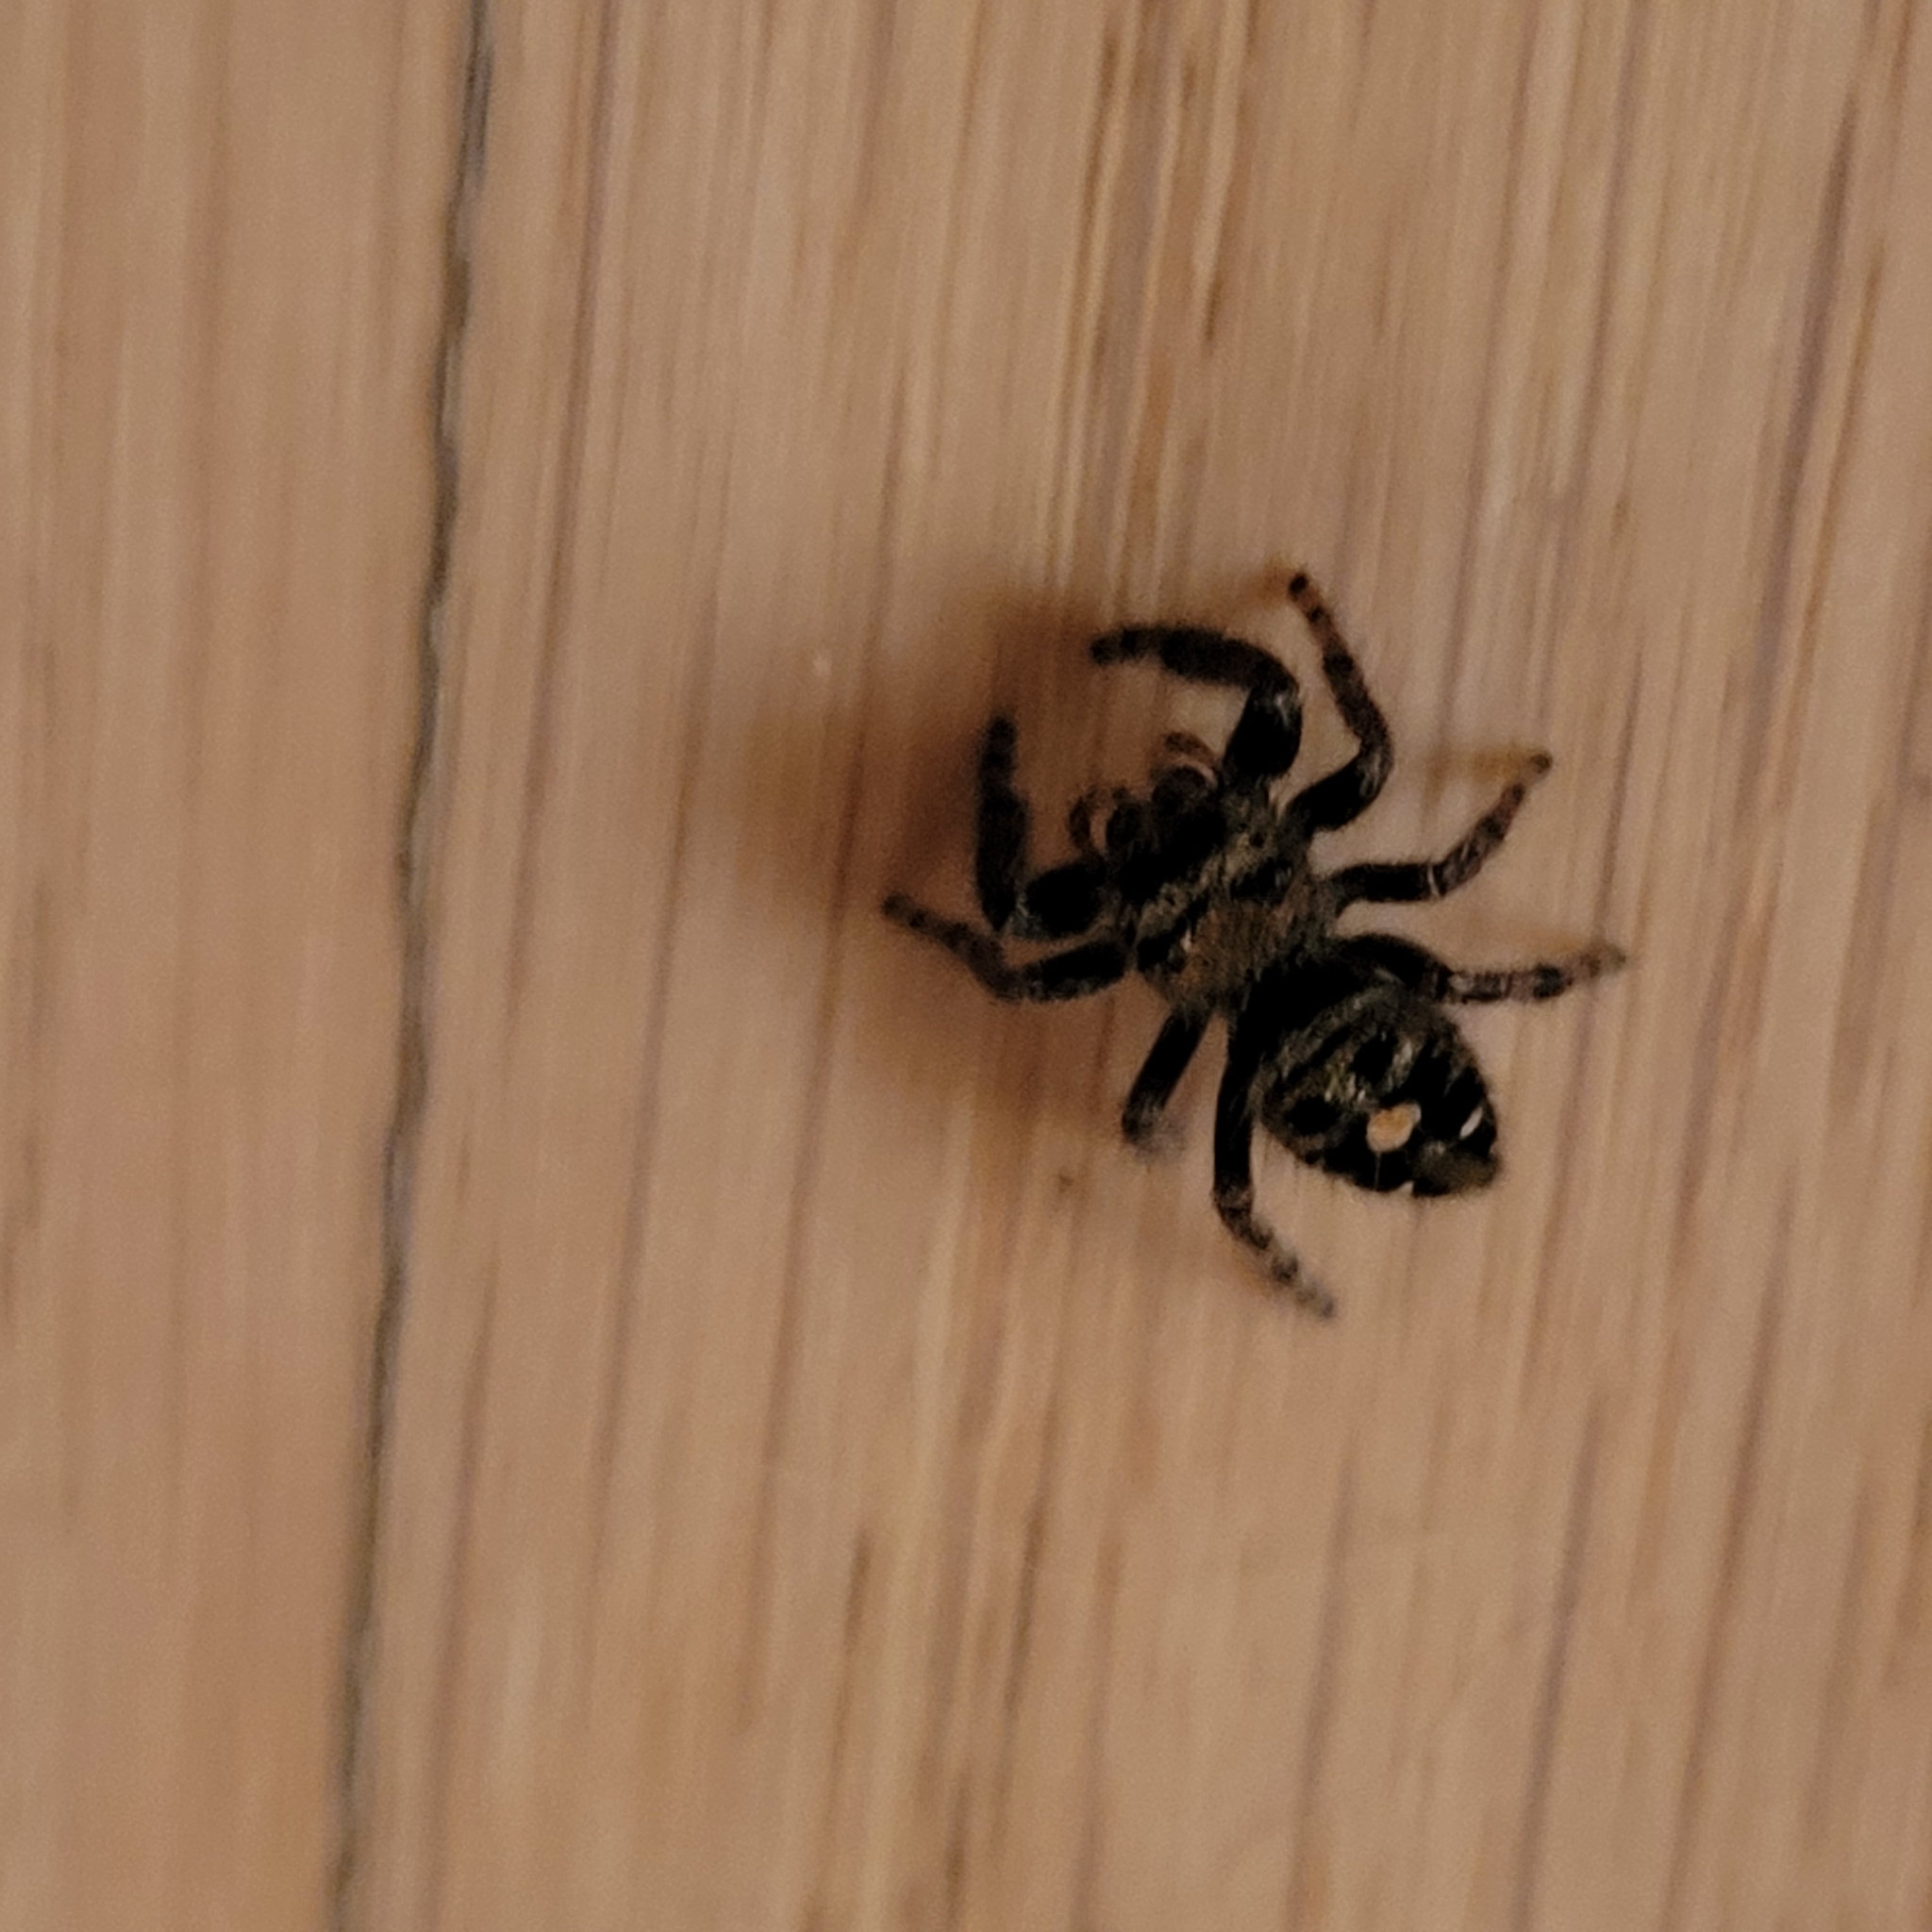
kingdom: Animalia
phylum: Arthropoda
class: Arachnida
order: Araneae
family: Salticidae
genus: Phidippus
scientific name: Phidippus audax
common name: Bold jumper
